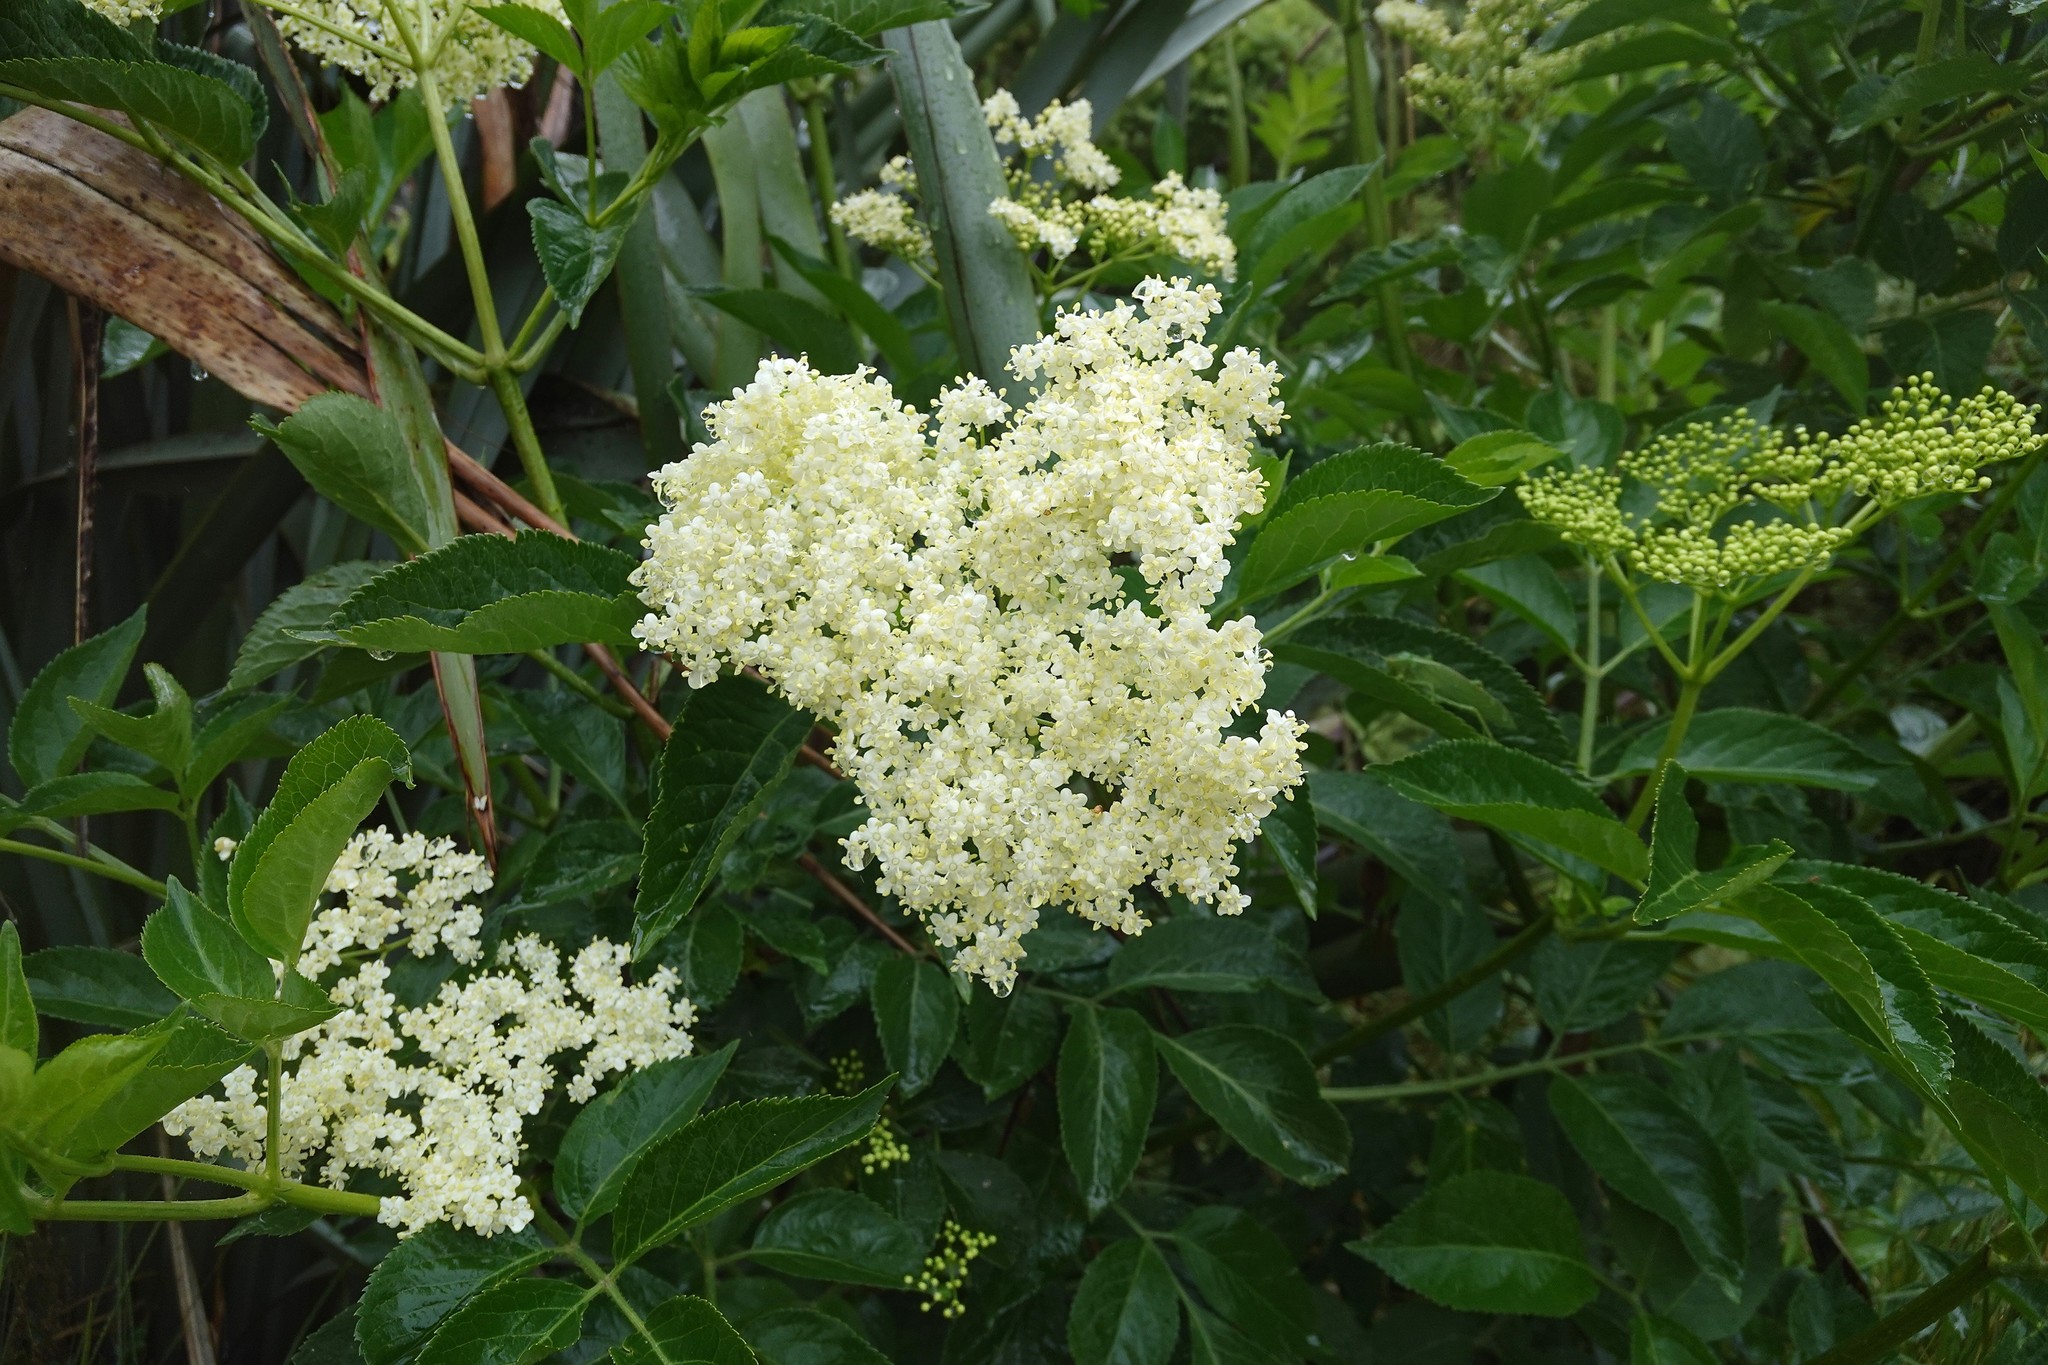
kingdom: Plantae
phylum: Tracheophyta
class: Magnoliopsida
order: Dipsacales
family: Viburnaceae
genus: Sambucus
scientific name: Sambucus nigra
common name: Elder
